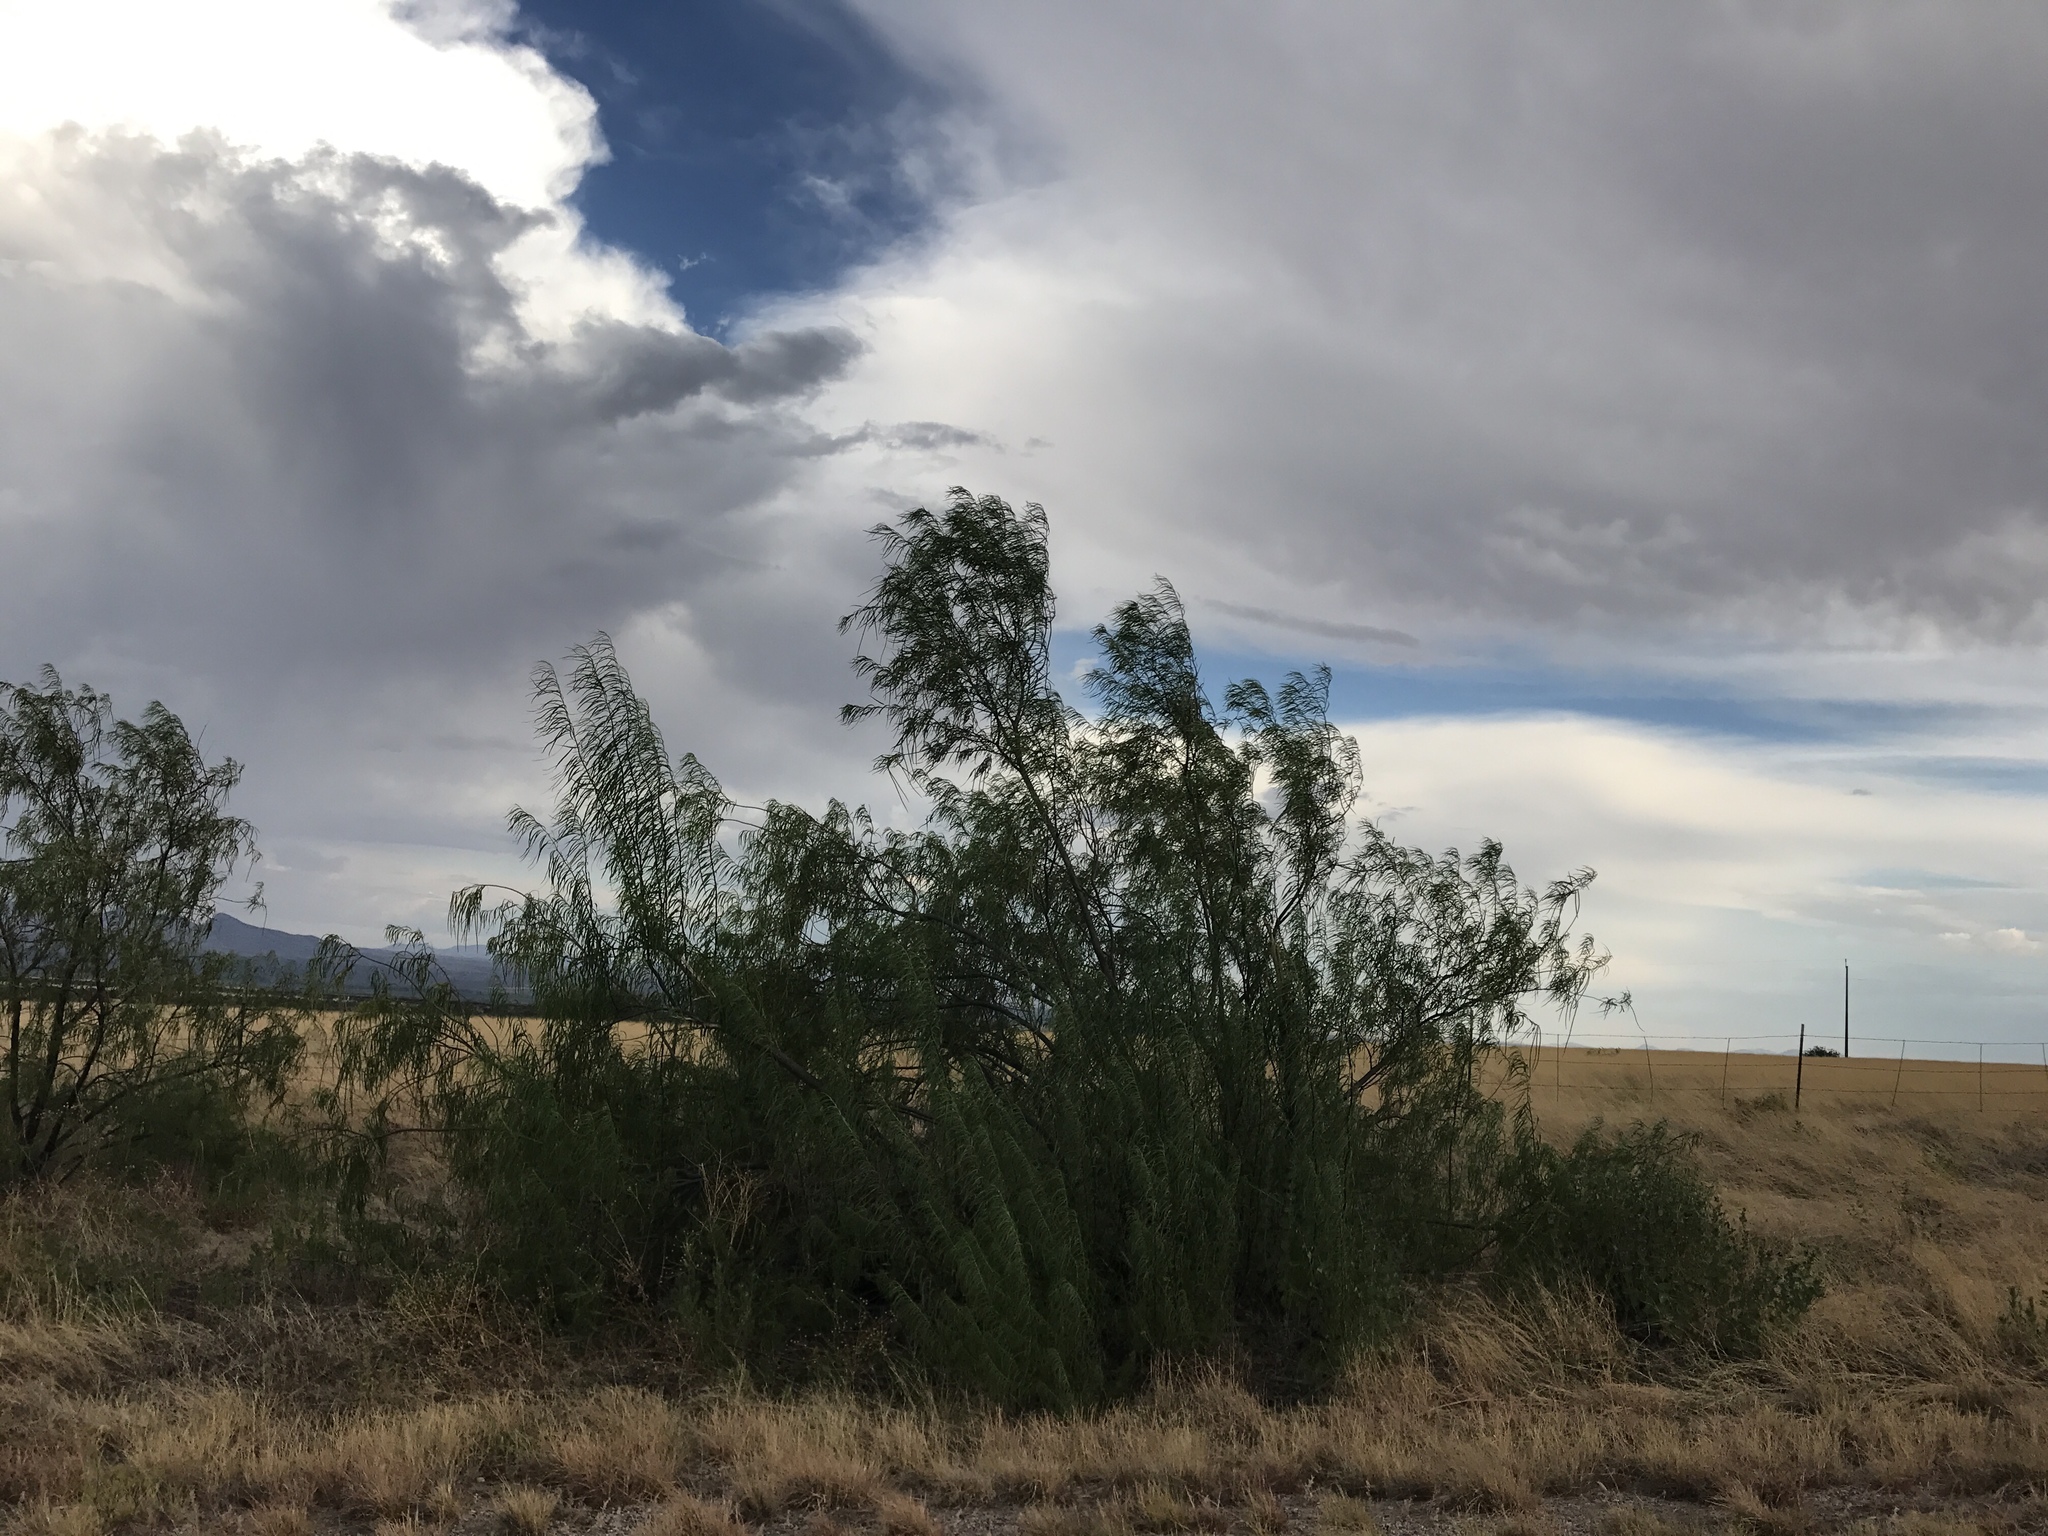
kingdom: Plantae
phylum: Tracheophyta
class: Magnoliopsida
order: Lamiales
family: Bignoniaceae
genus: Chilopsis
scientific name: Chilopsis linearis
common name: Desert-willow
